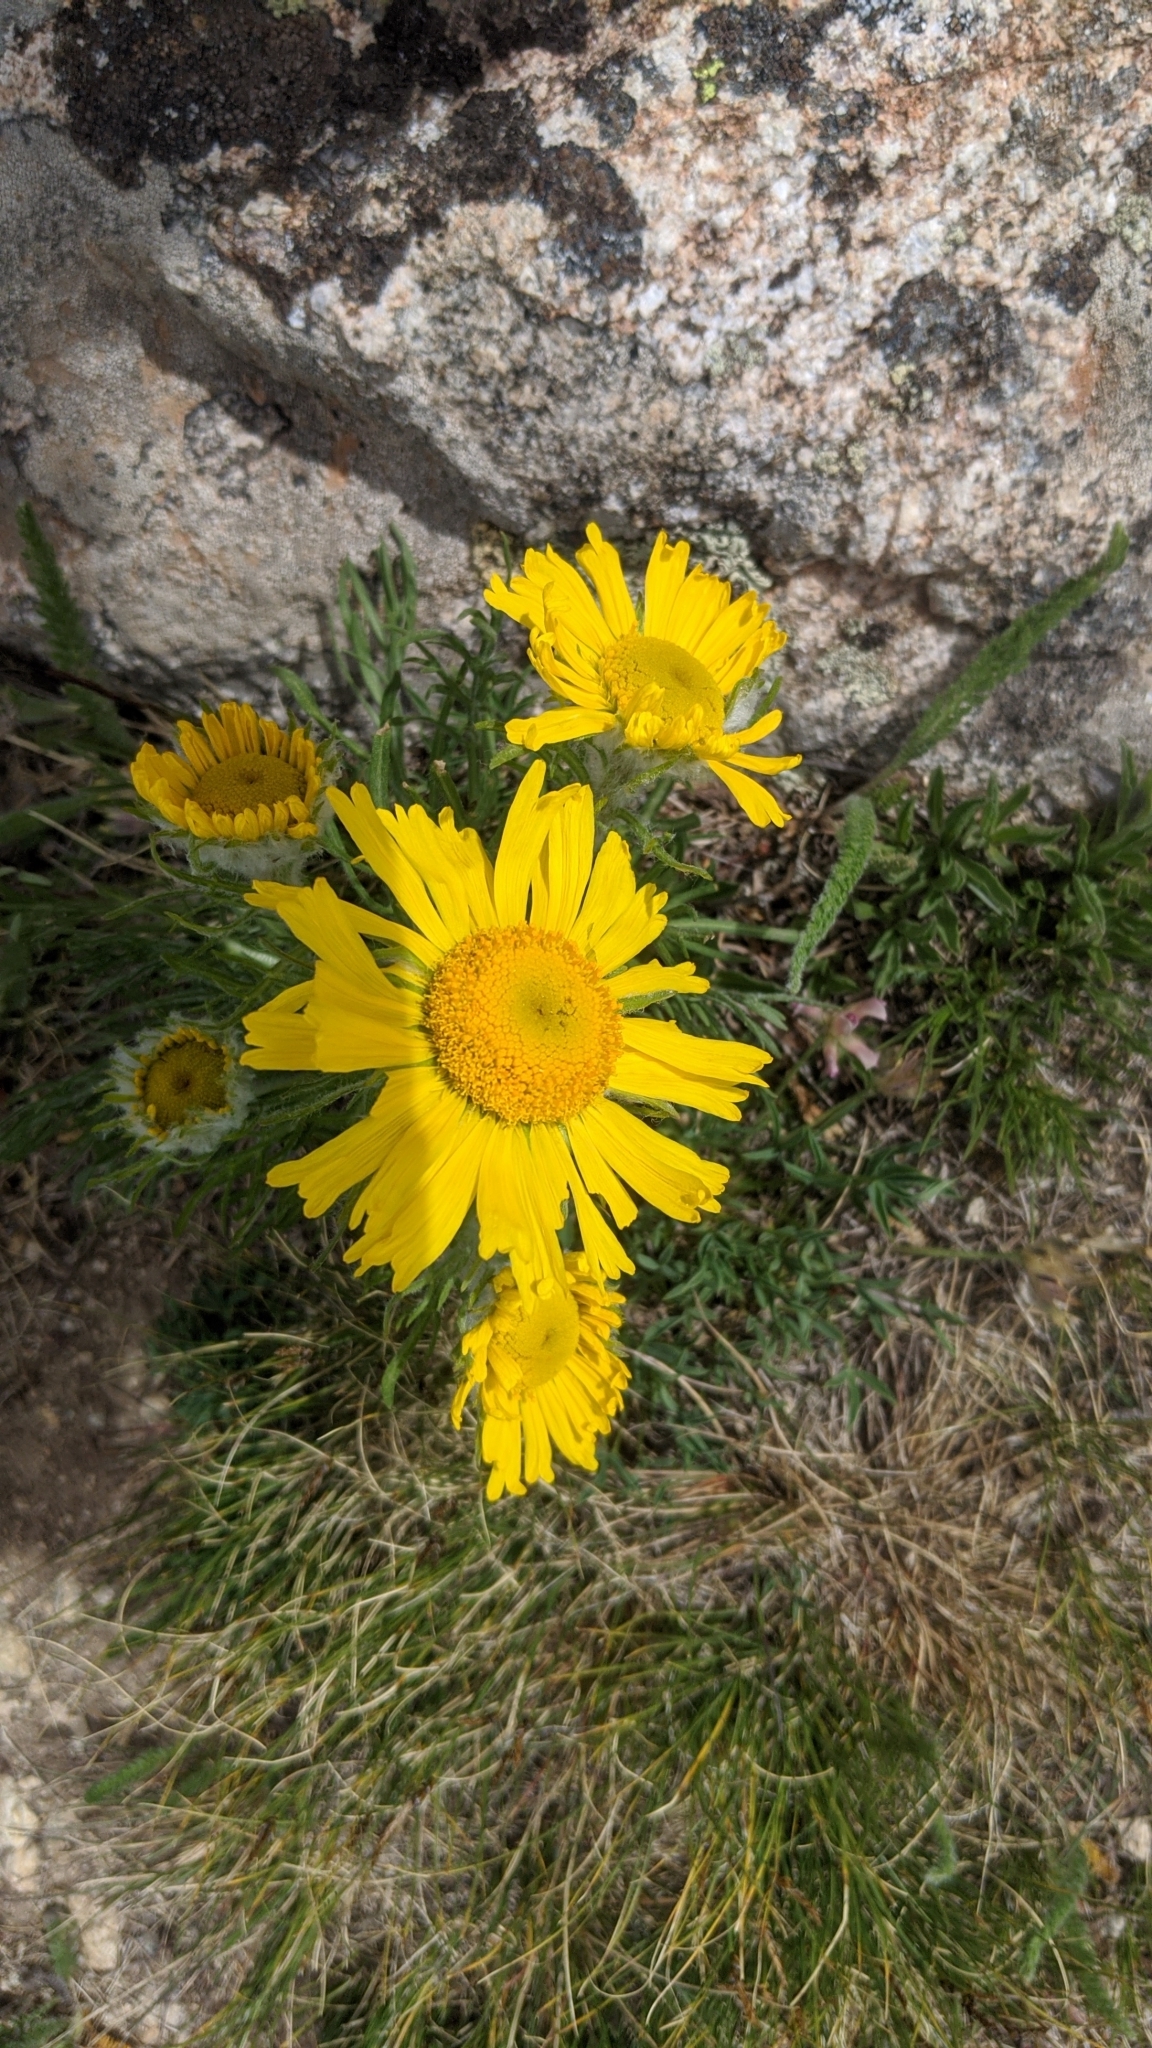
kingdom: Plantae
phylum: Tracheophyta
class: Magnoliopsida
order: Asterales
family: Asteraceae
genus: Hymenoxys
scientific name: Hymenoxys grandiflora
